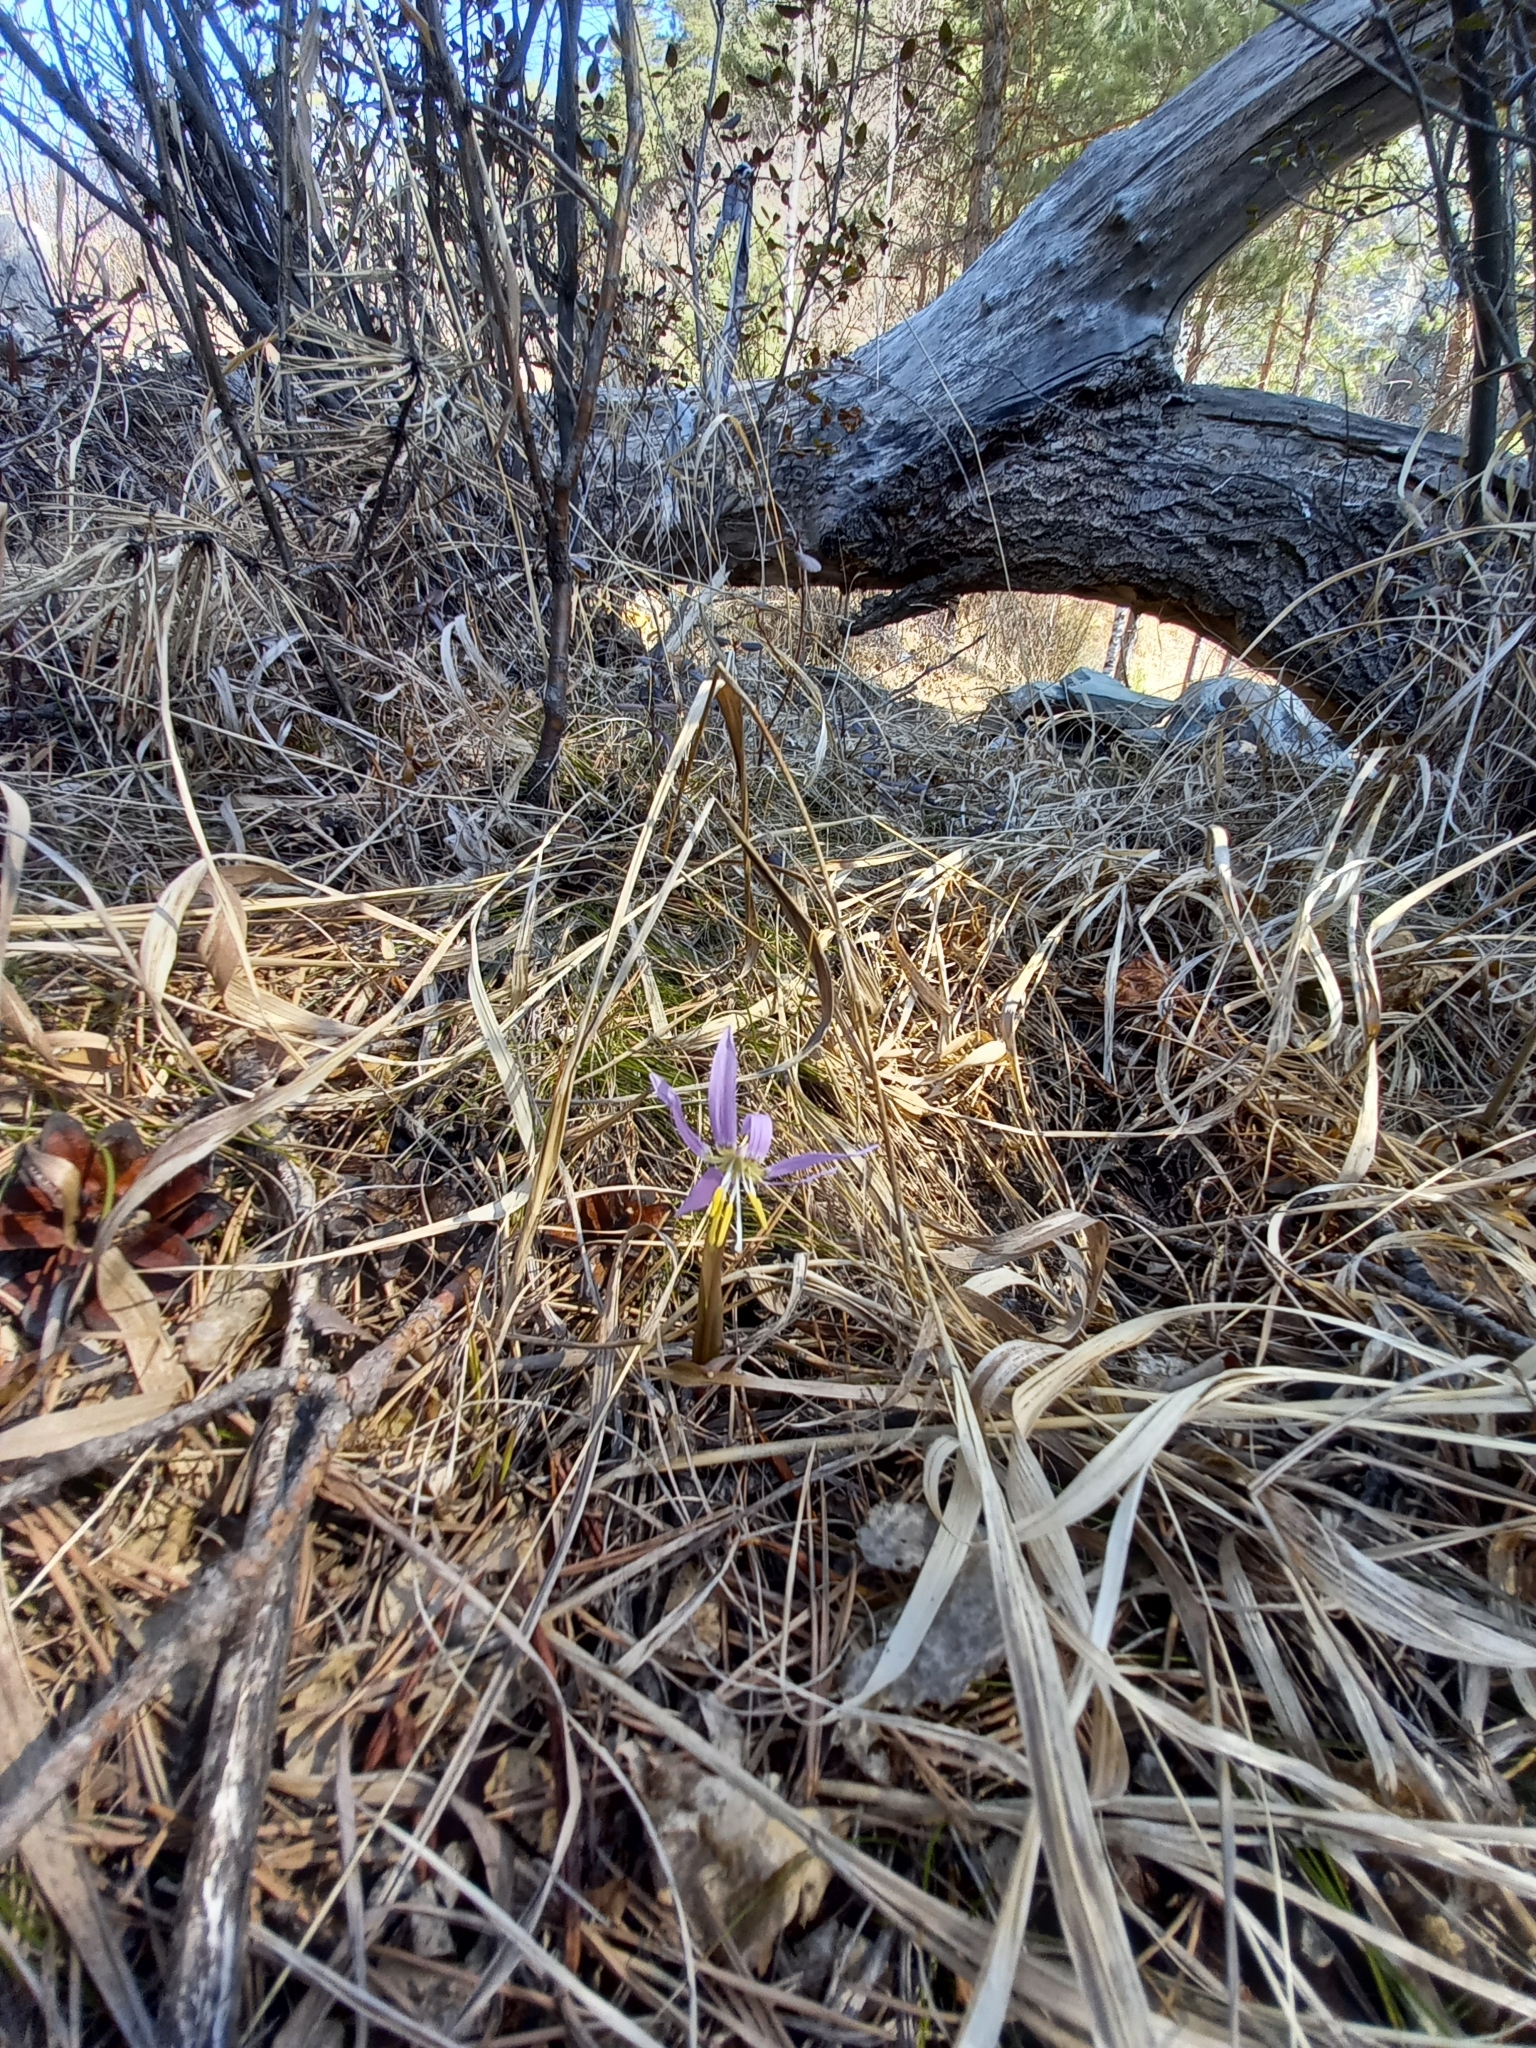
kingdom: Plantae
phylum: Tracheophyta
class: Liliopsida
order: Liliales
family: Liliaceae
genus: Erythronium
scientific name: Erythronium sibiricum
